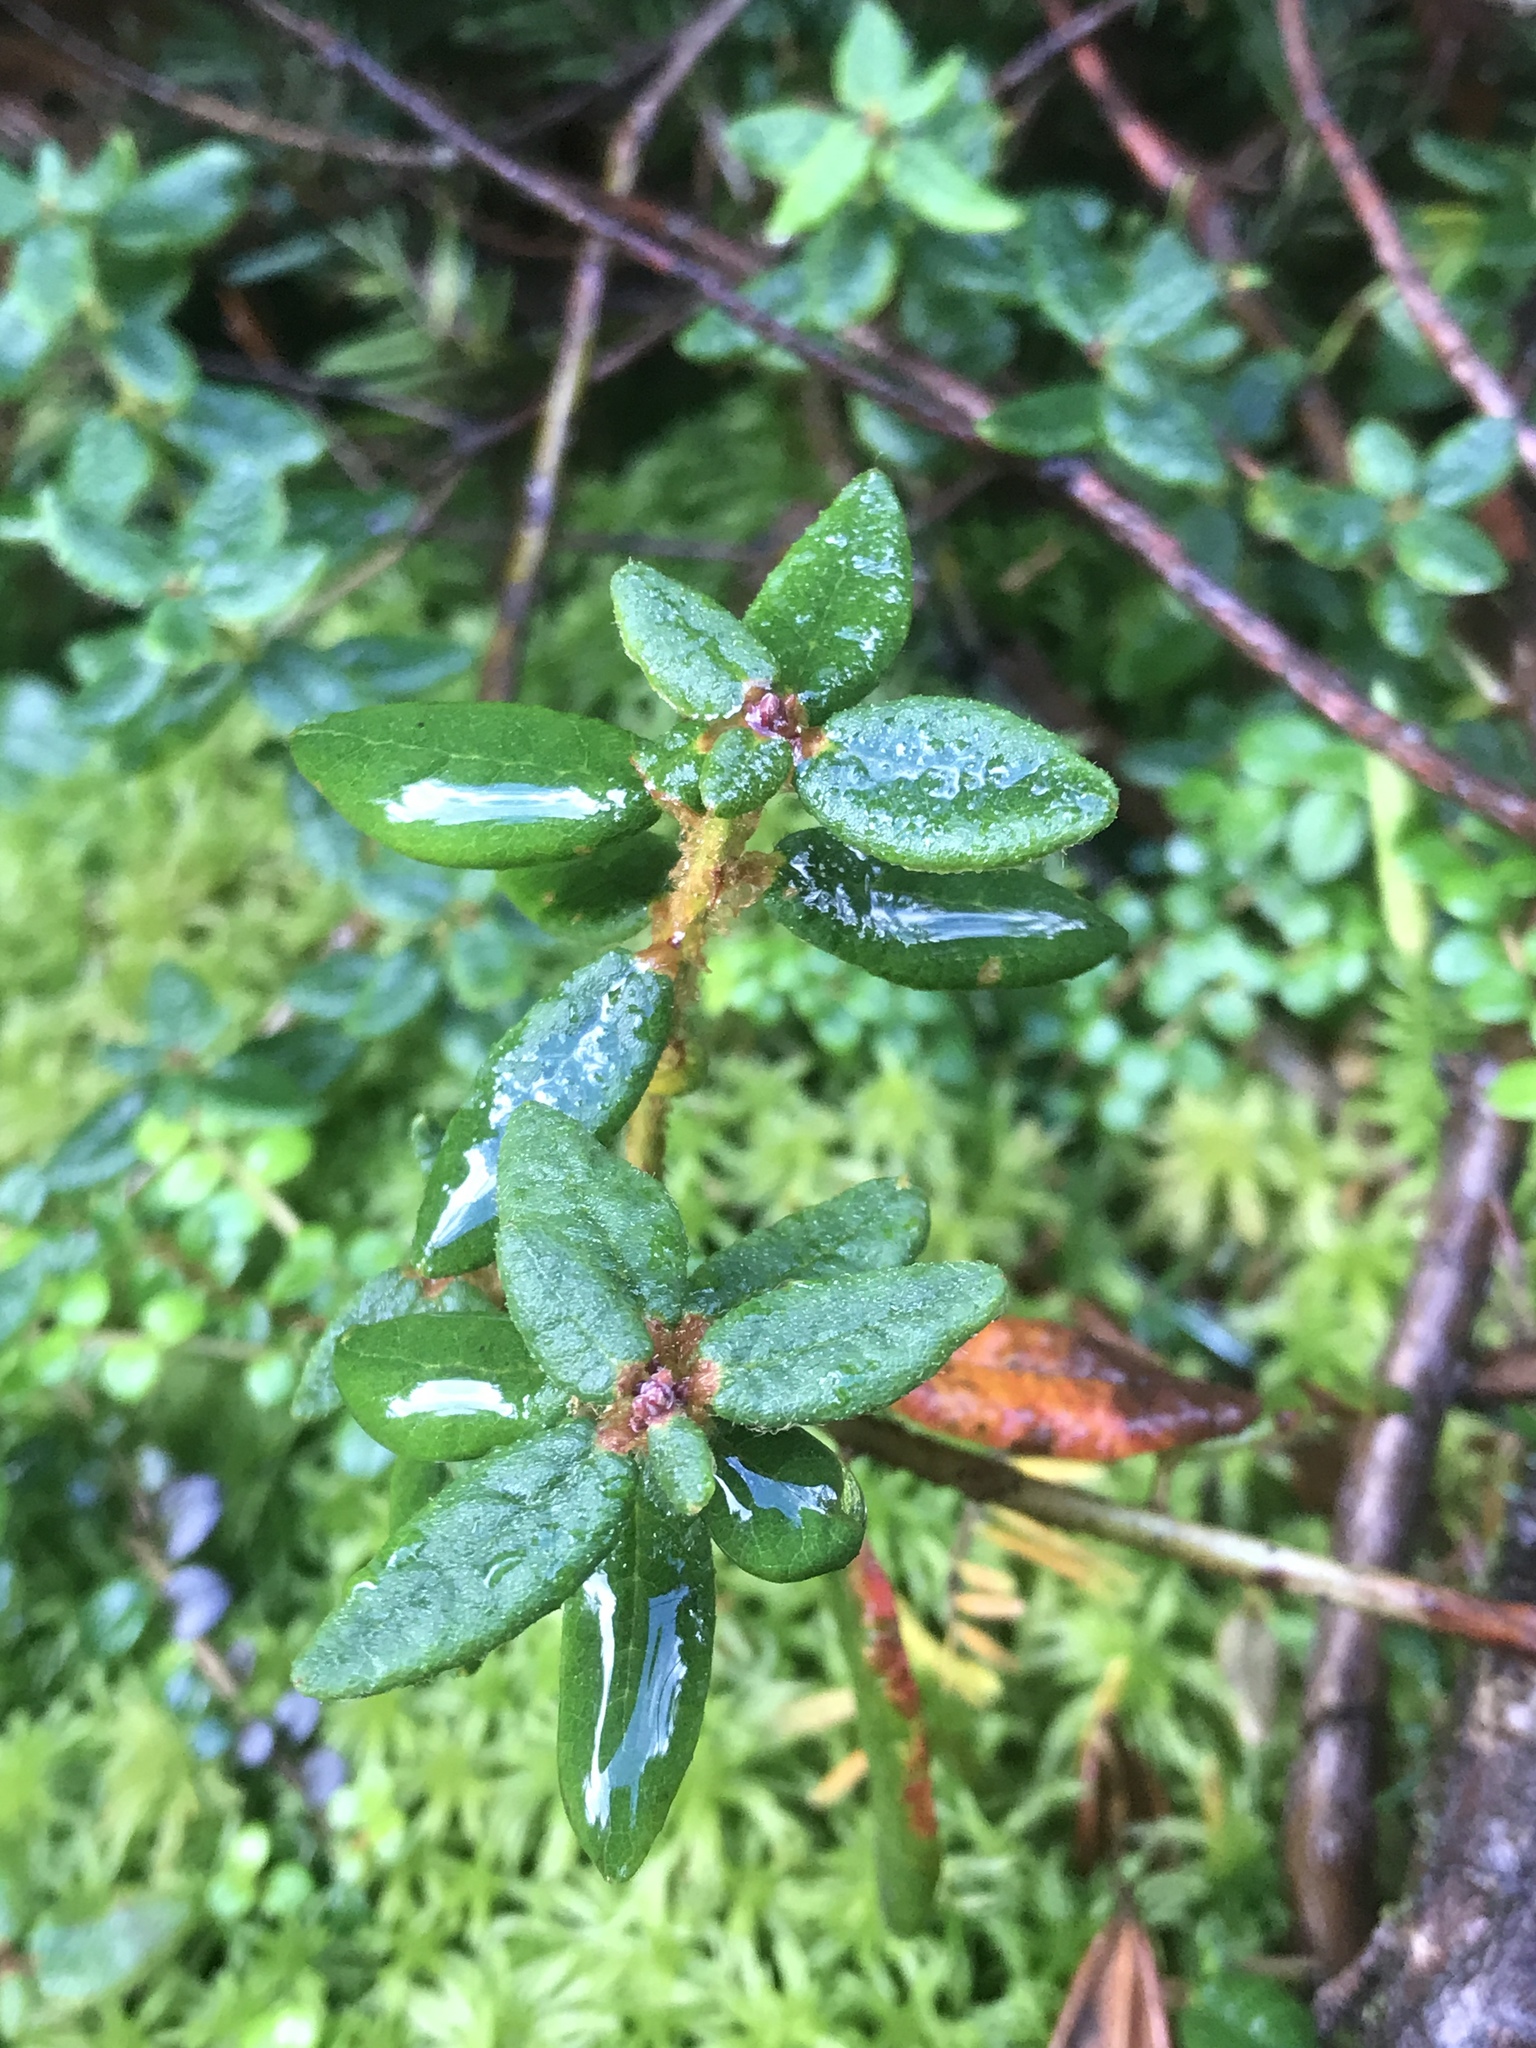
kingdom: Plantae
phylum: Tracheophyta
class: Magnoliopsida
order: Ericales
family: Ericaceae
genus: Rhododendron
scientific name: Rhododendron groenlandicum
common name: Bog labrador tea
